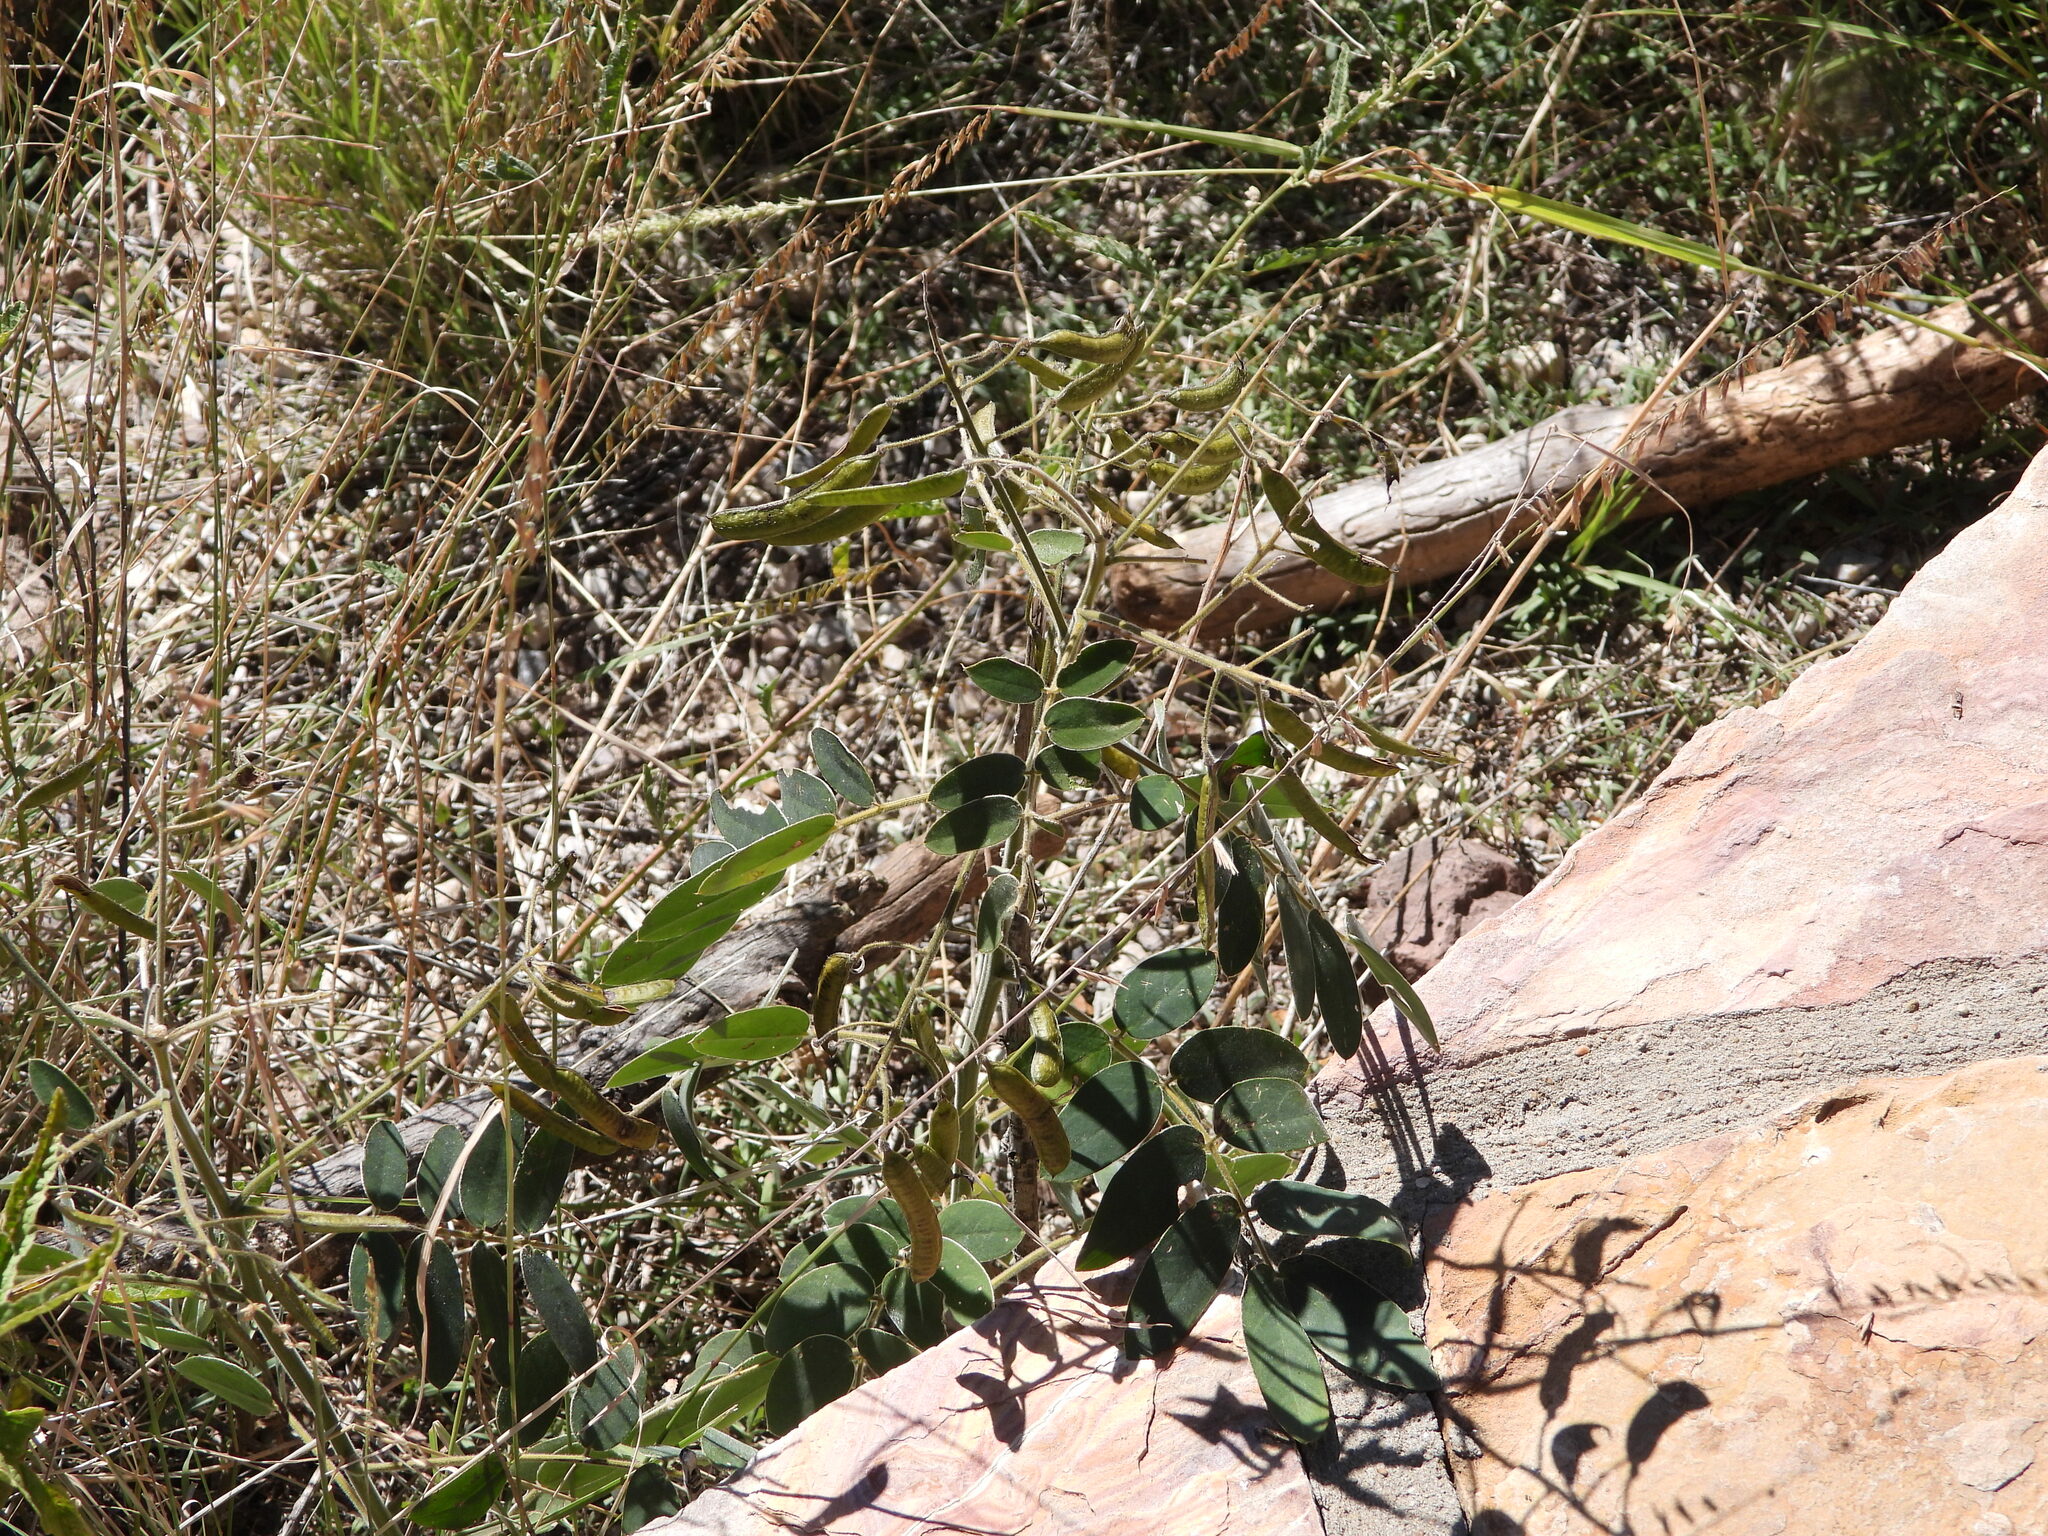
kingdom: Plantae
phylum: Tracheophyta
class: Magnoliopsida
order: Fabales
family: Fabaceae
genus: Senna
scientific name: Senna lindheimeriana
